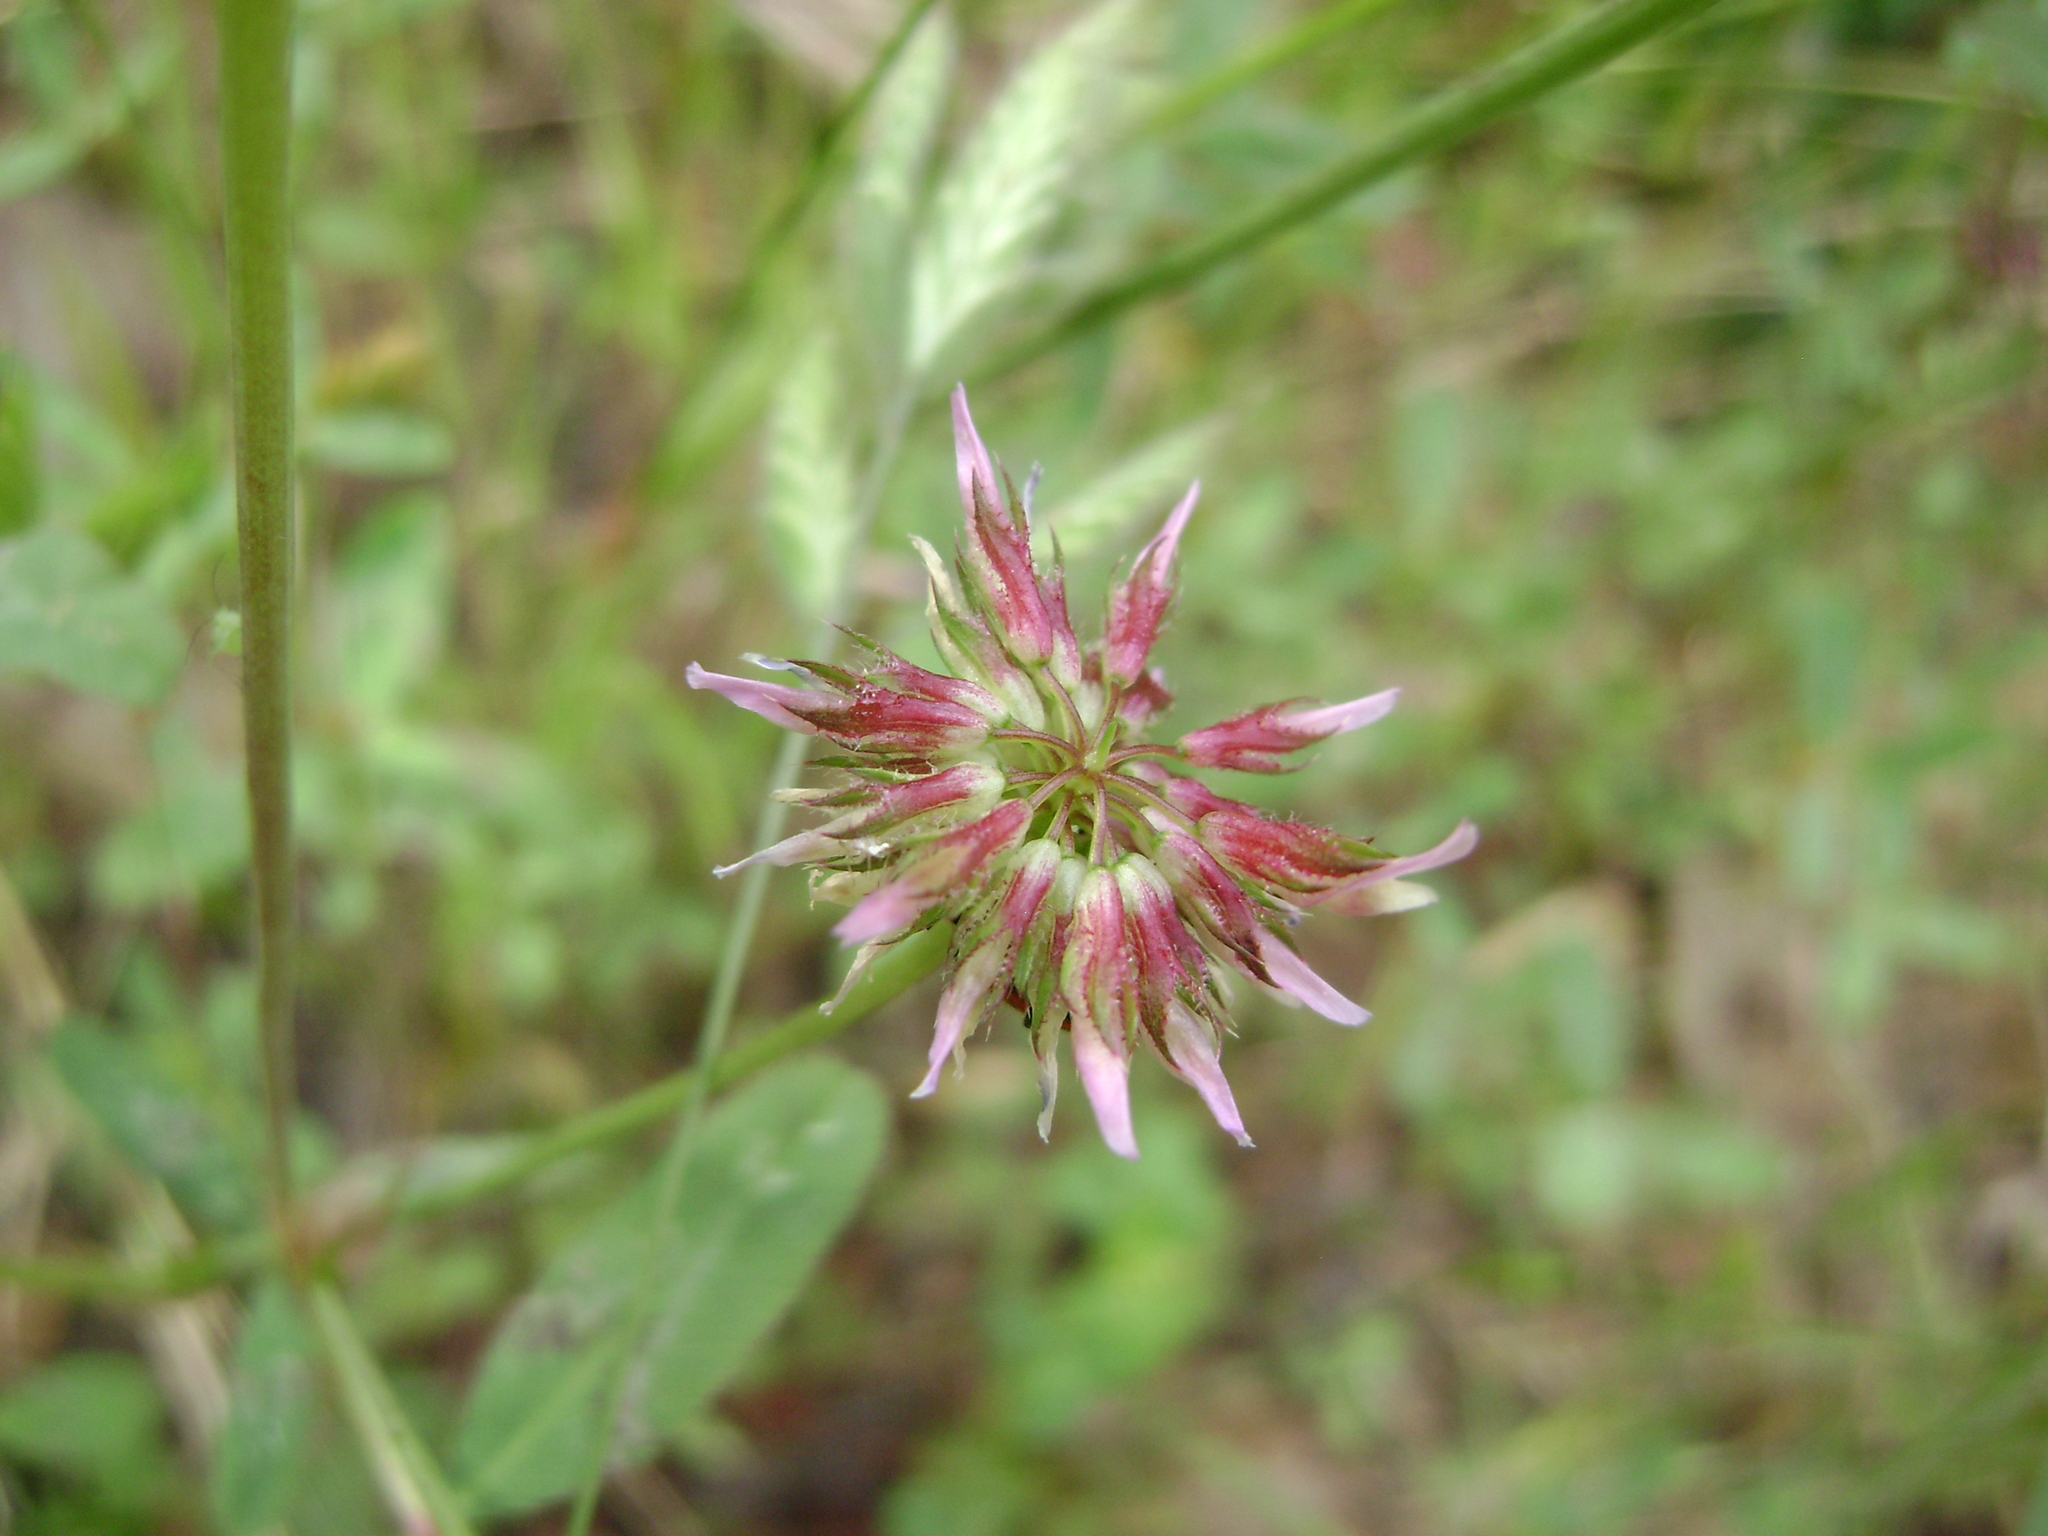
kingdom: Plantae
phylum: Tracheophyta
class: Magnoliopsida
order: Fabales
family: Fabaceae
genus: Trifolium
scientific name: Trifolium ciliolatum
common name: Foothill clover
